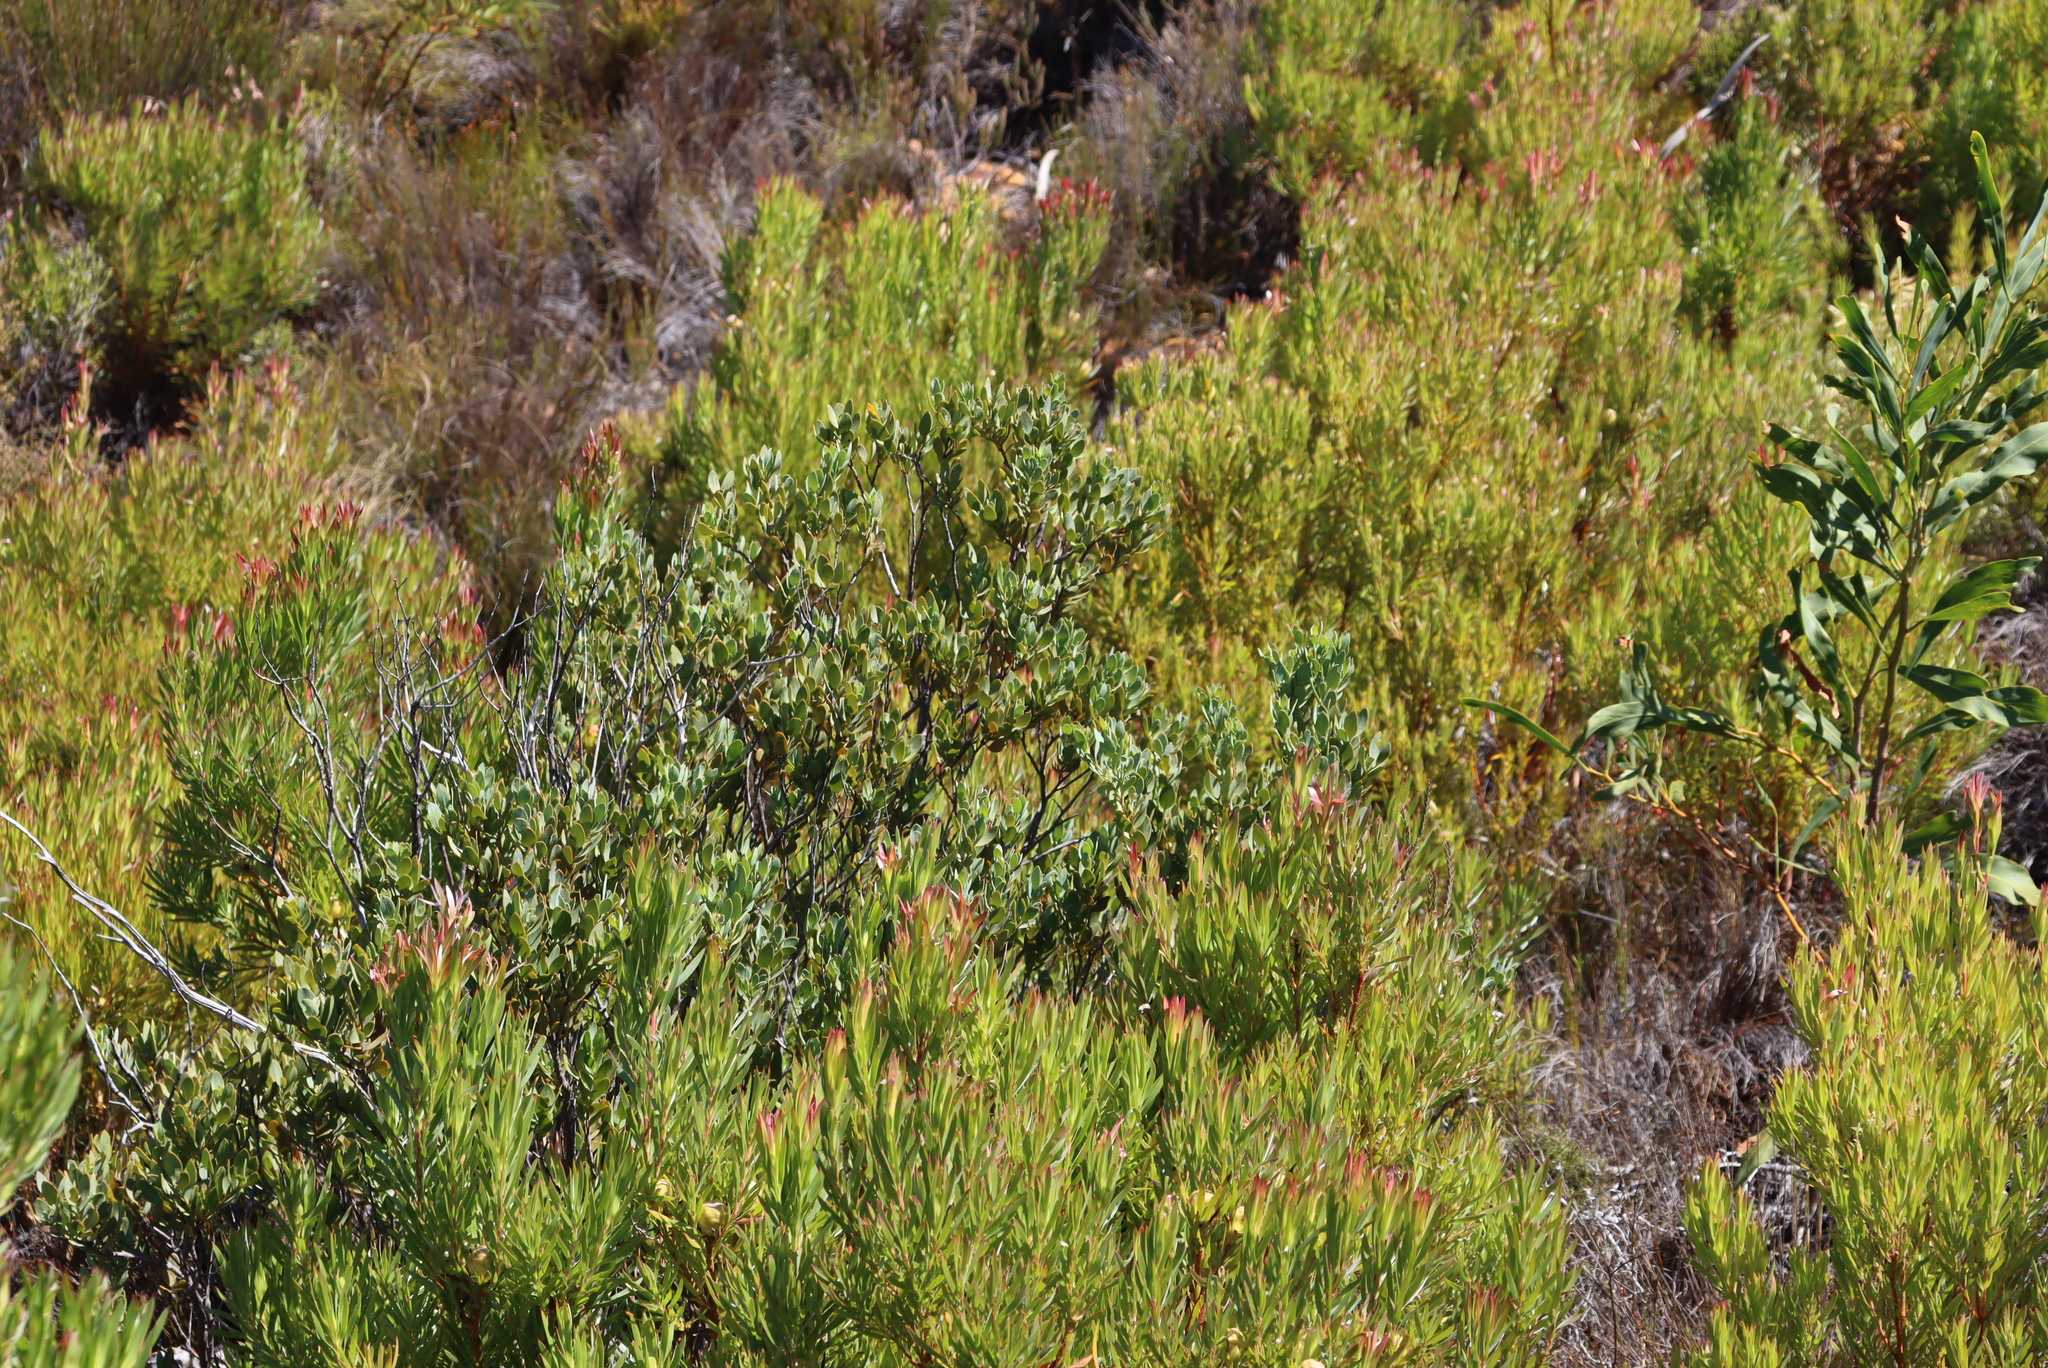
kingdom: Plantae
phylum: Tracheophyta
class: Magnoliopsida
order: Santalales
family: Santalaceae
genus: Osyris
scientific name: Osyris compressa
